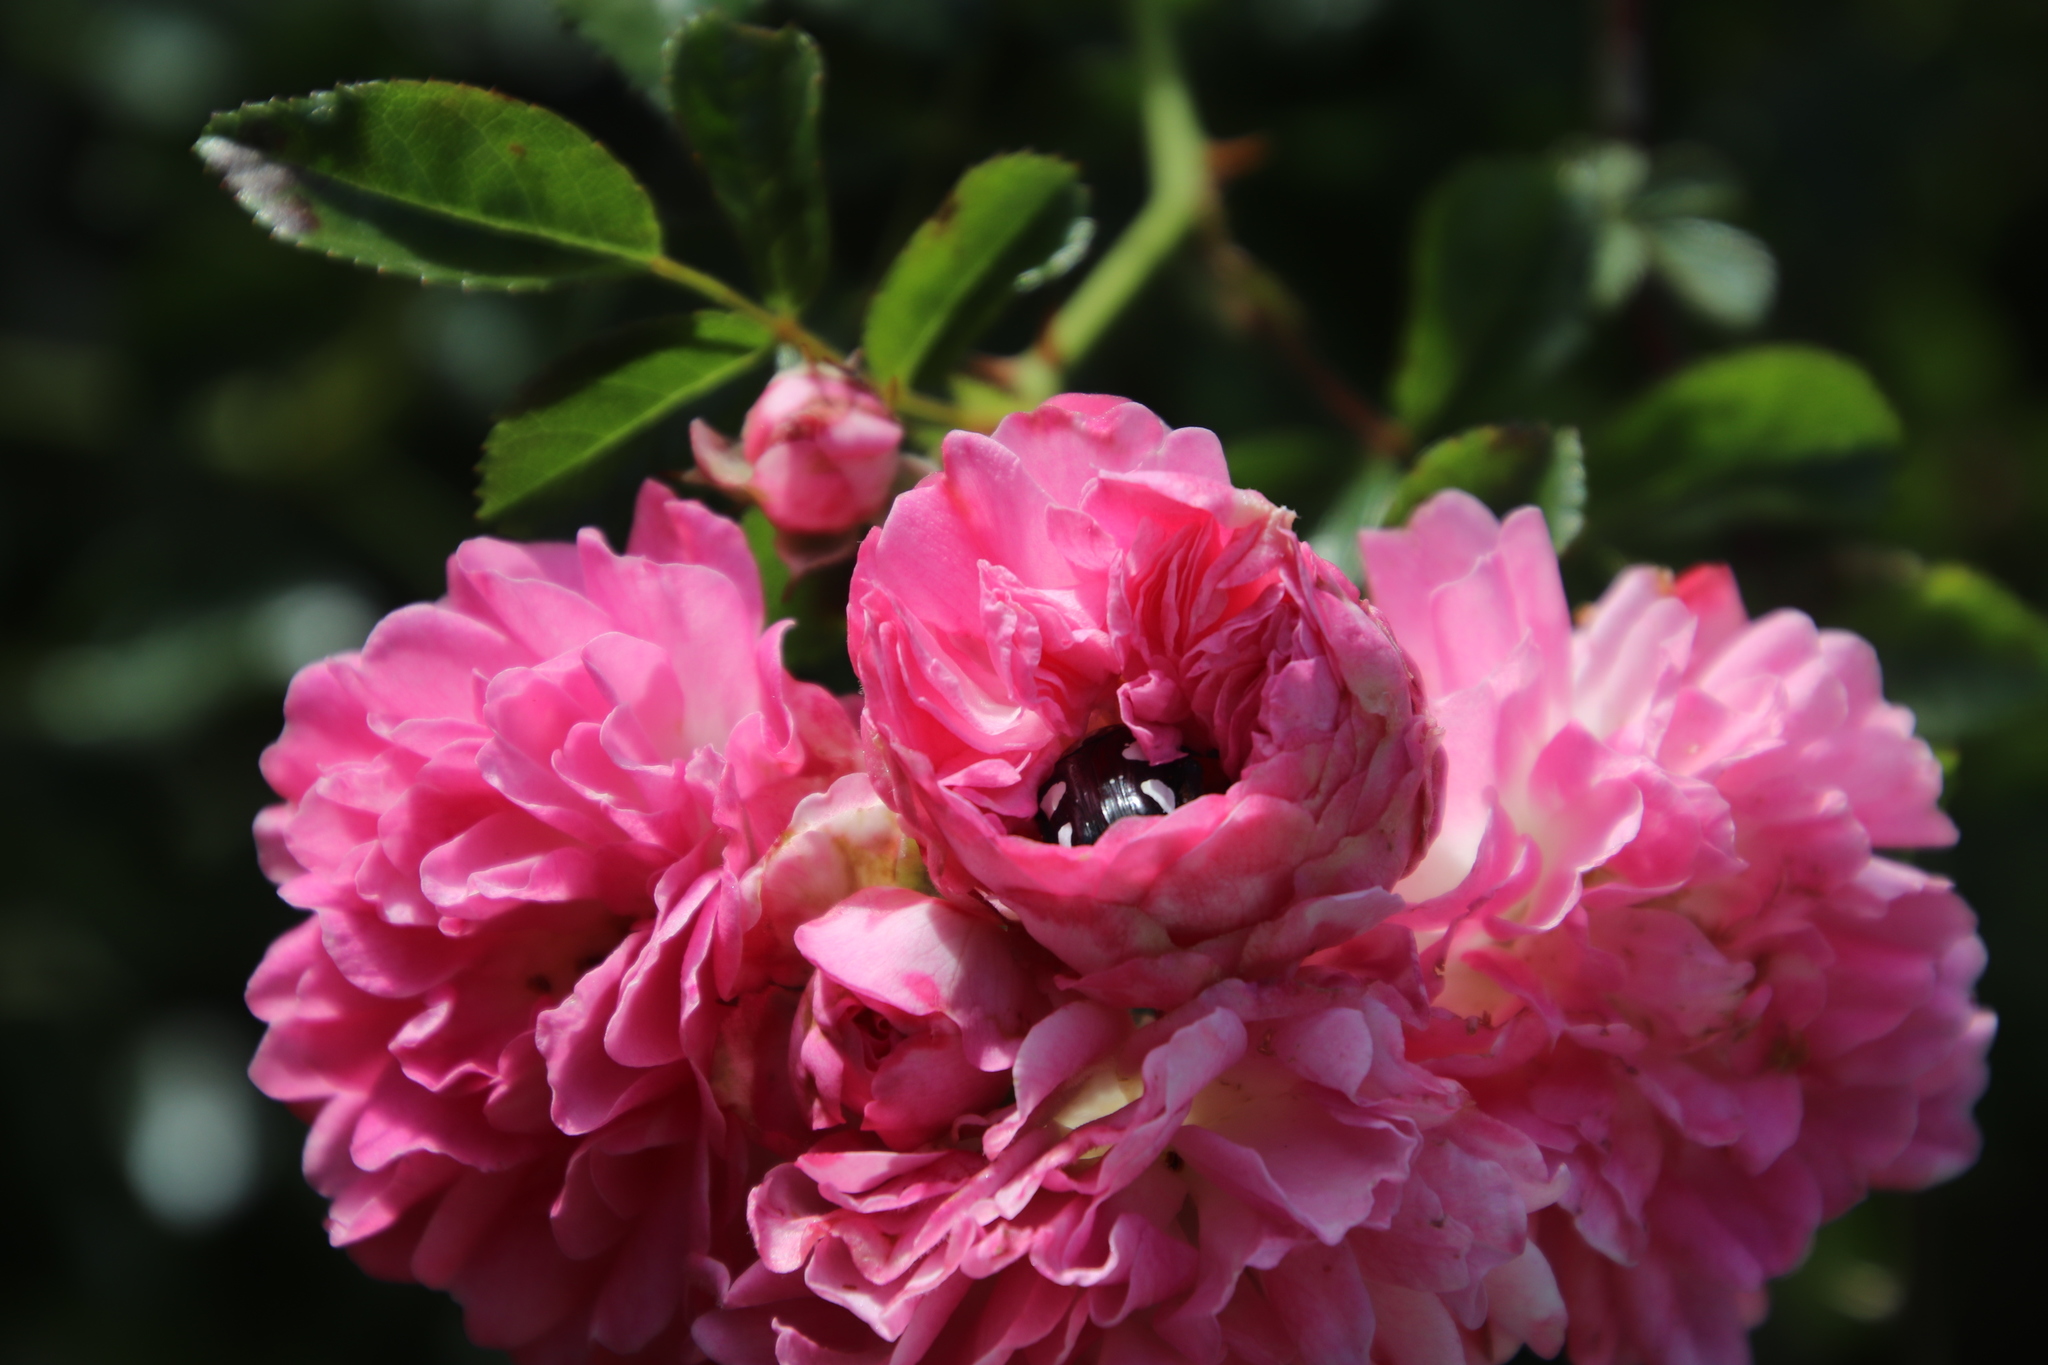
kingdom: Animalia
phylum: Arthropoda
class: Insecta
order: Coleoptera
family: Scarabaeidae
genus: Mausoleopsis
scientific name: Mausoleopsis amabilis
